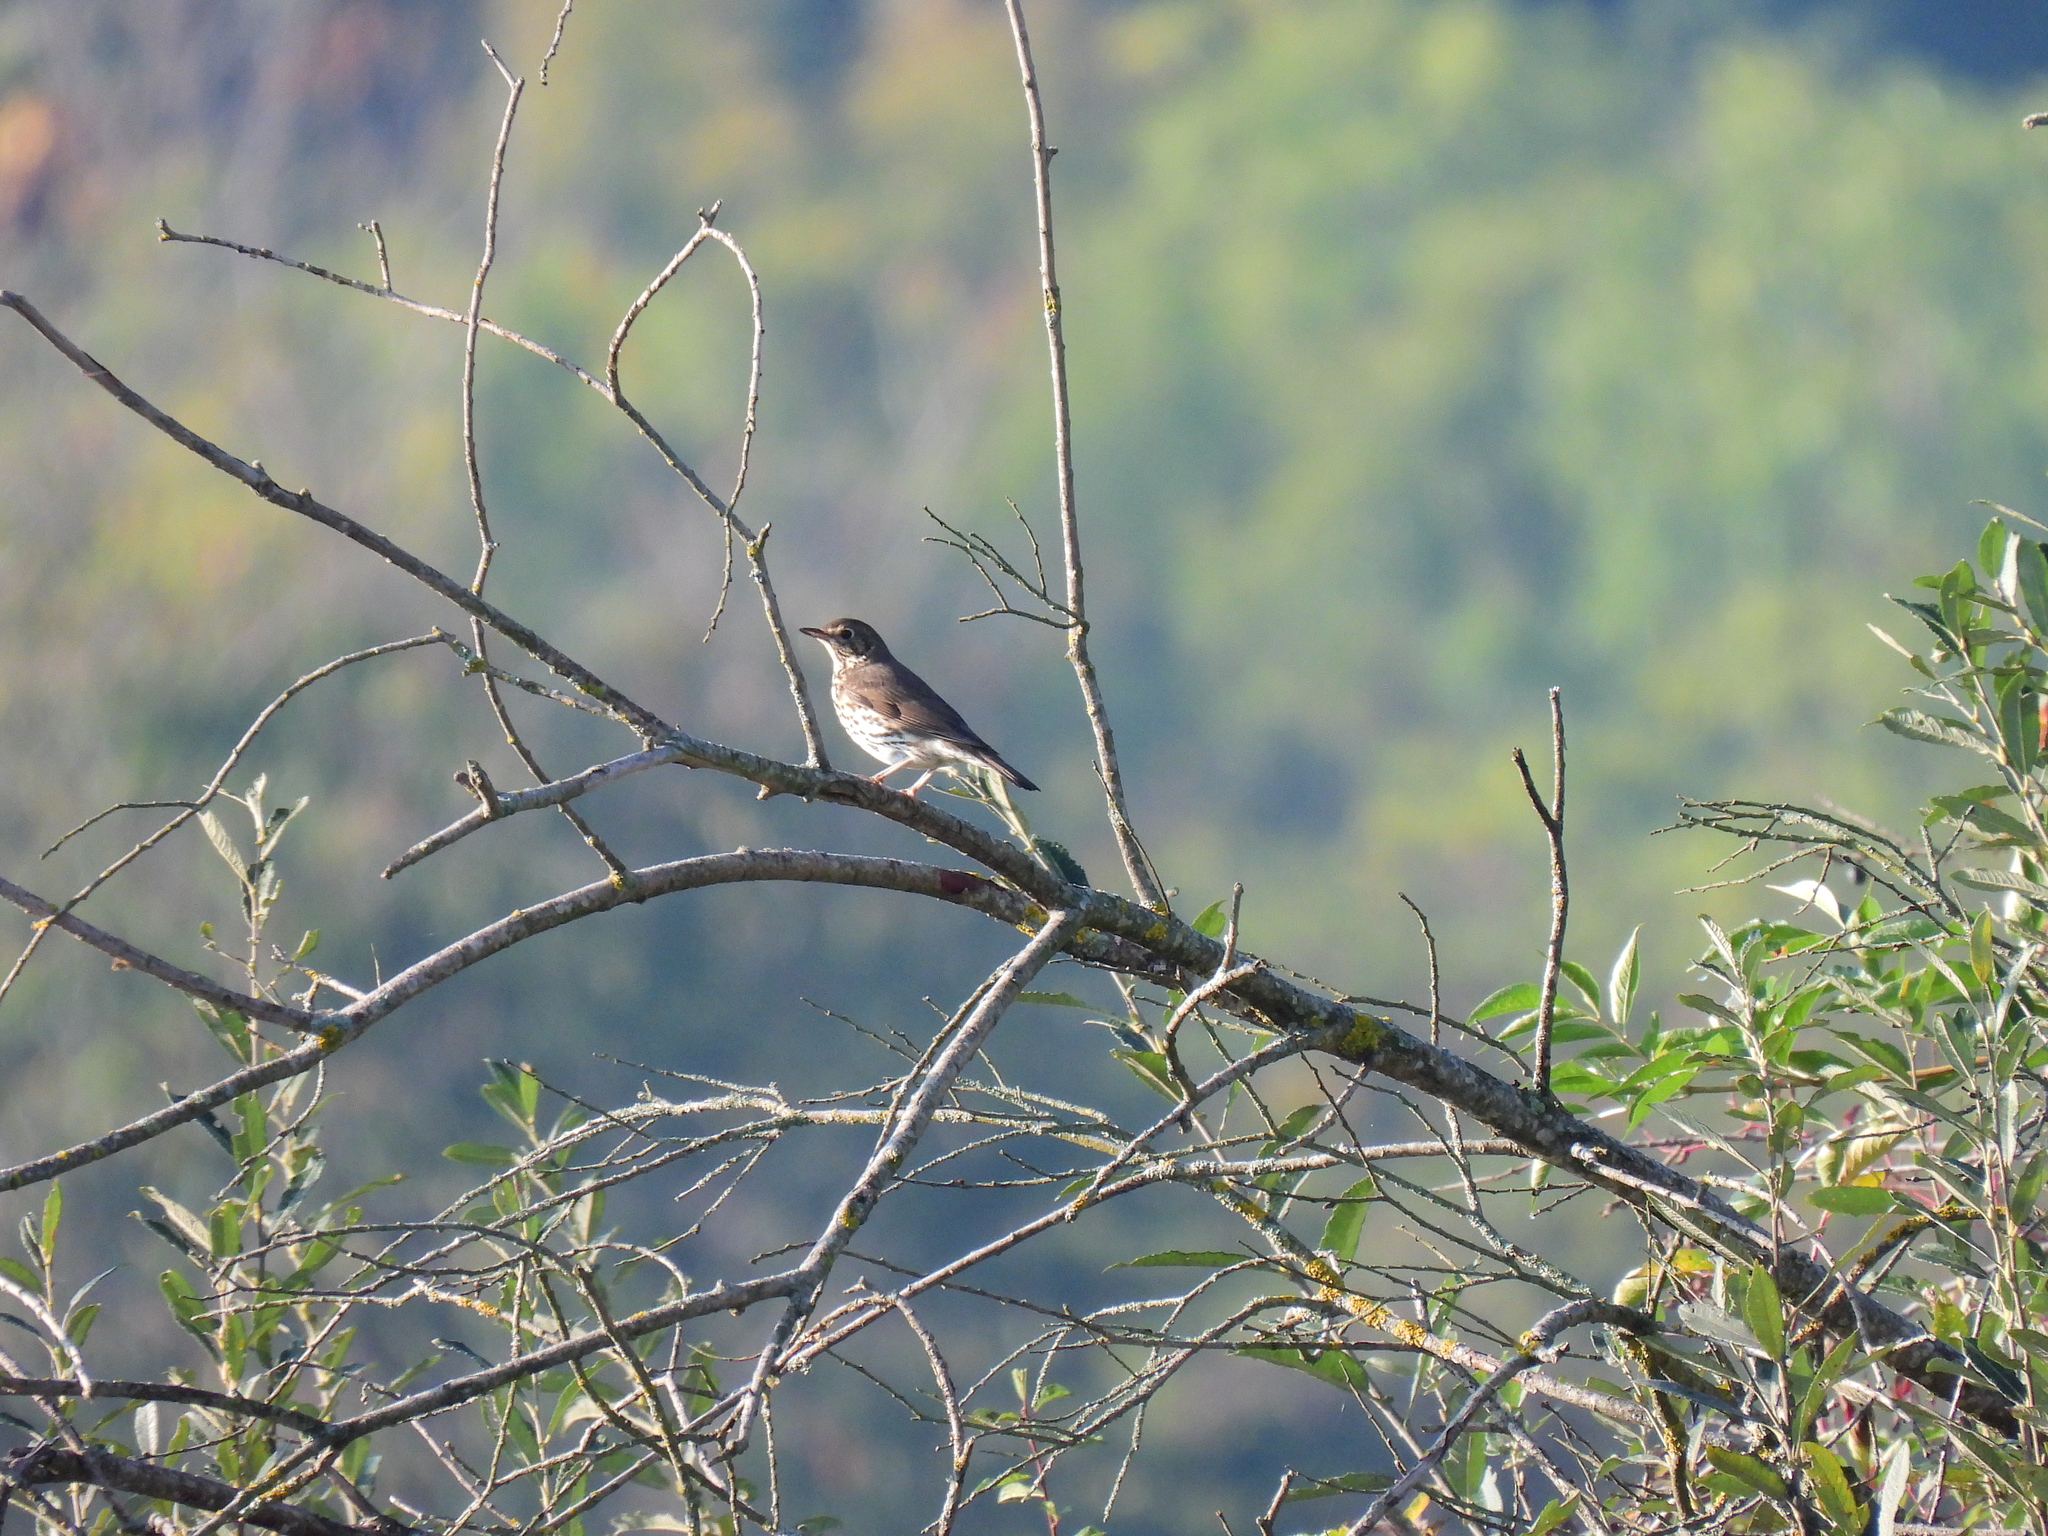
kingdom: Animalia
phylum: Chordata
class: Aves
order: Passeriformes
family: Turdidae
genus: Turdus
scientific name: Turdus philomelos
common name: Song thrush
